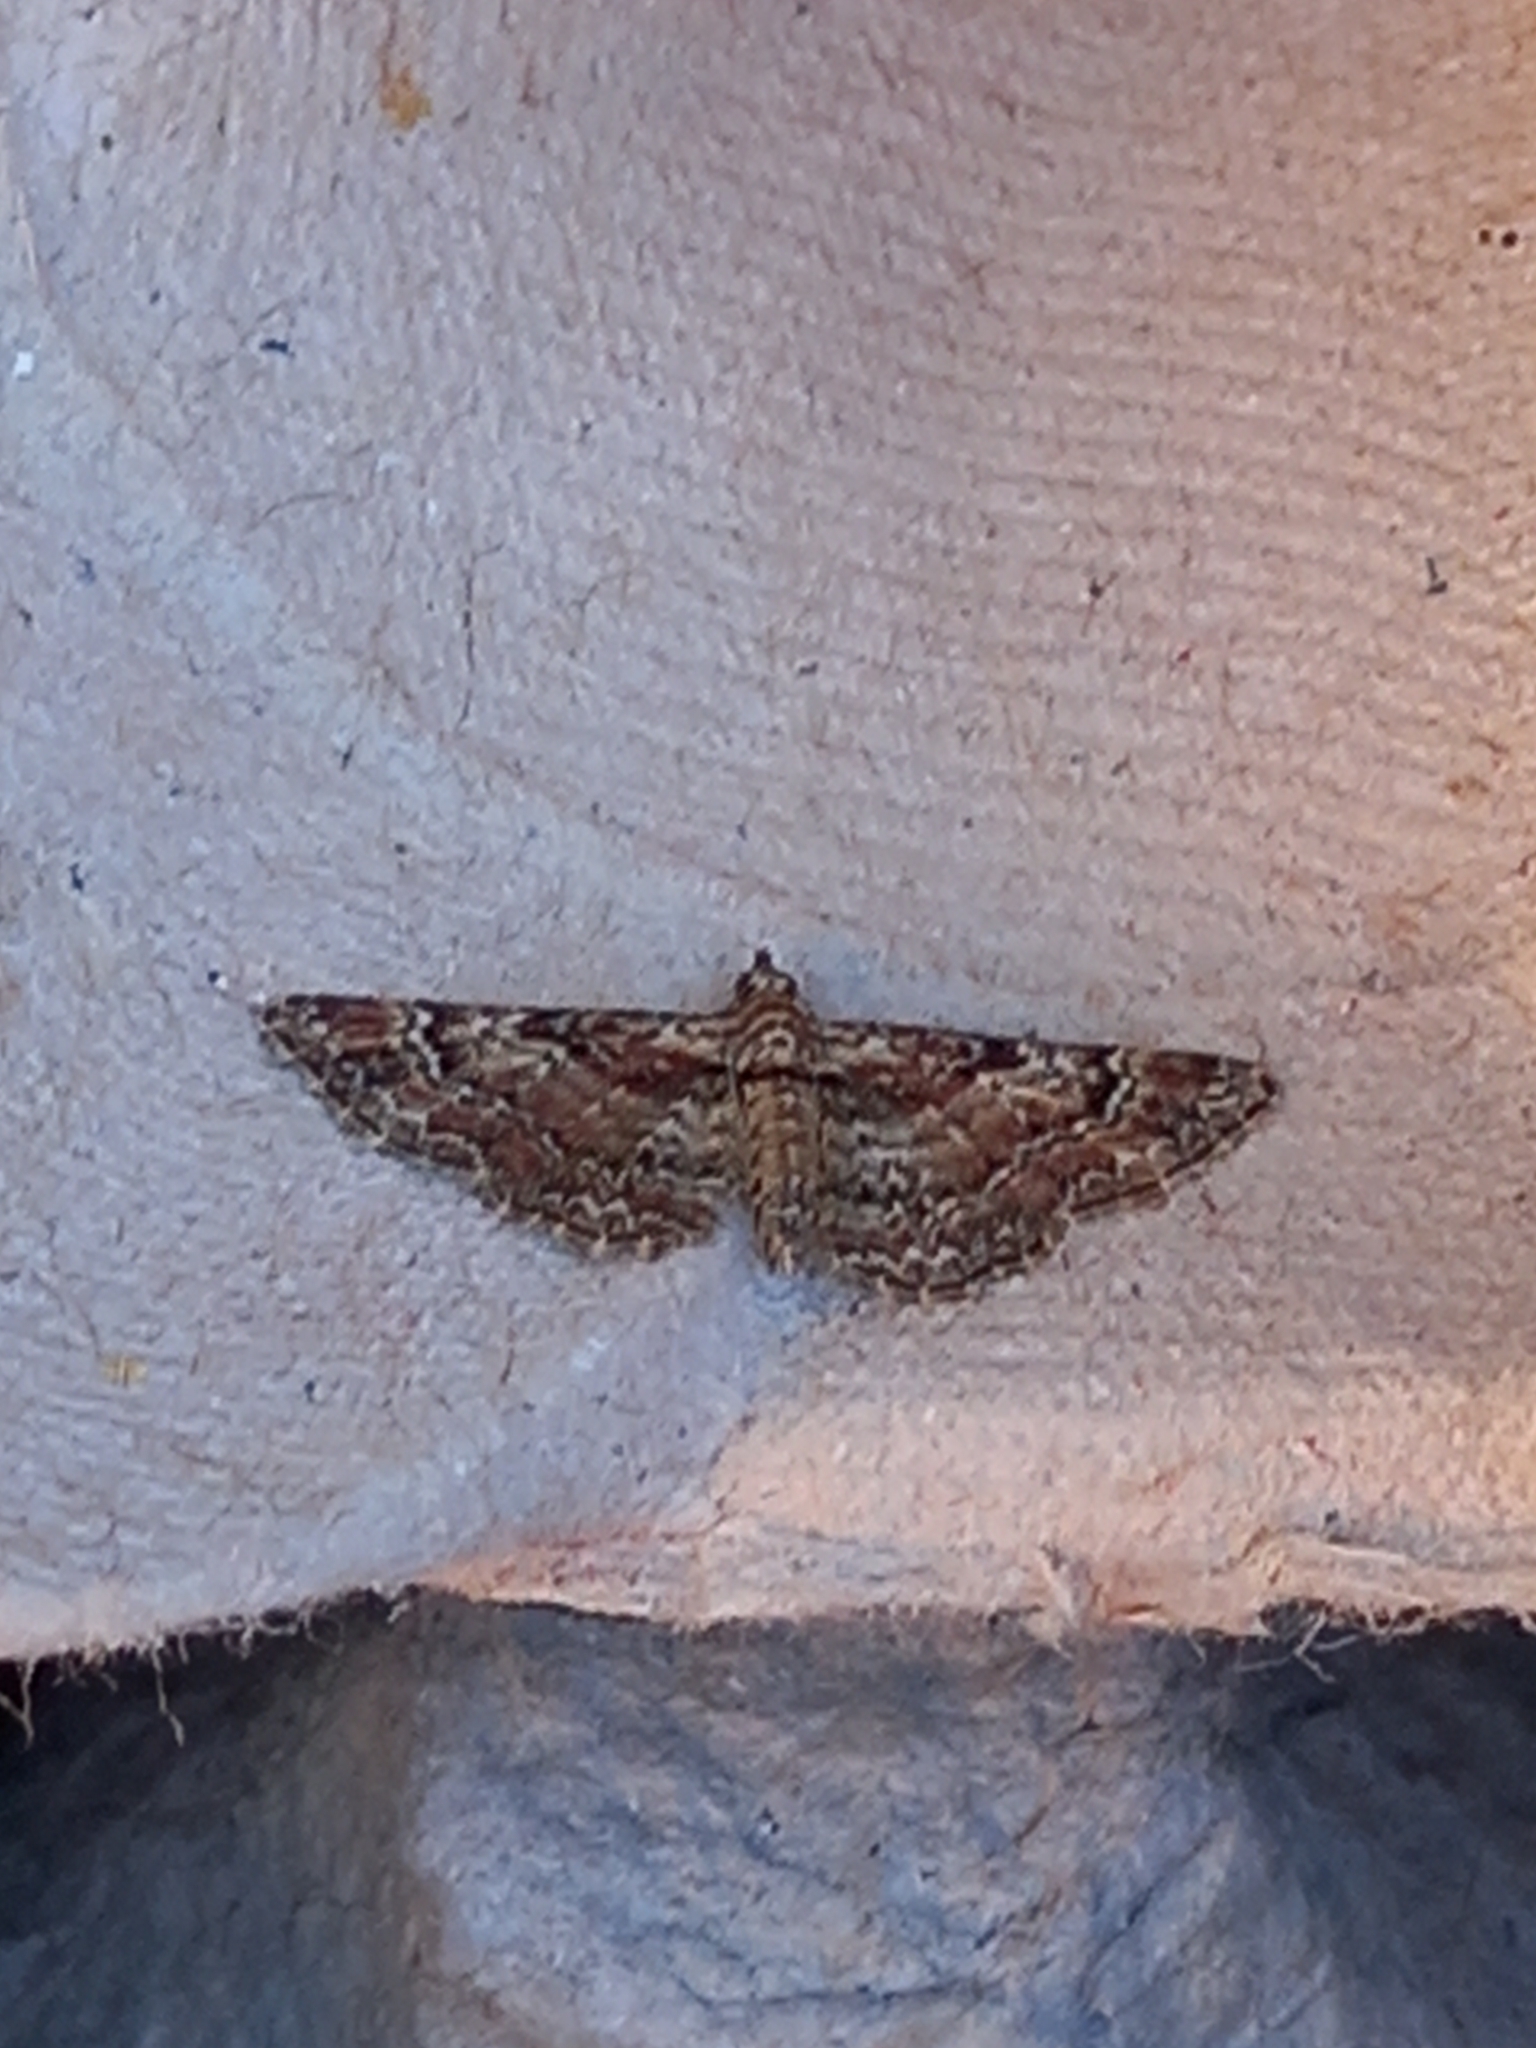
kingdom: Animalia
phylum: Arthropoda
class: Insecta
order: Lepidoptera
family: Geometridae
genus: Gymnoscelis
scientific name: Gymnoscelis rufifasciata
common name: Double-striped pug
